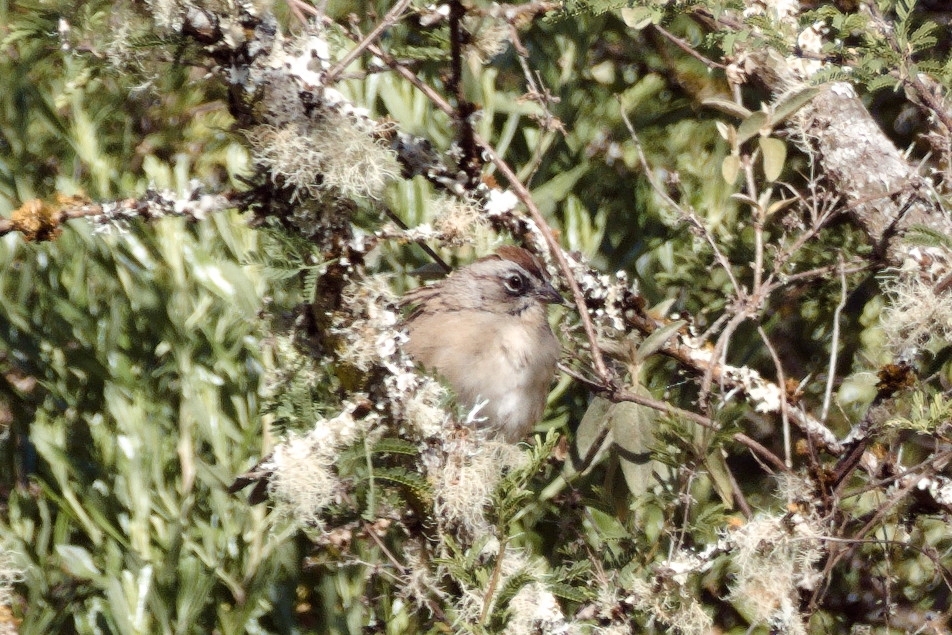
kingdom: Animalia
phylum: Chordata
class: Aves
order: Passeriformes
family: Passerellidae
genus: Aimophila
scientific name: Aimophila notosticta
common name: Oaxaca sparrow
